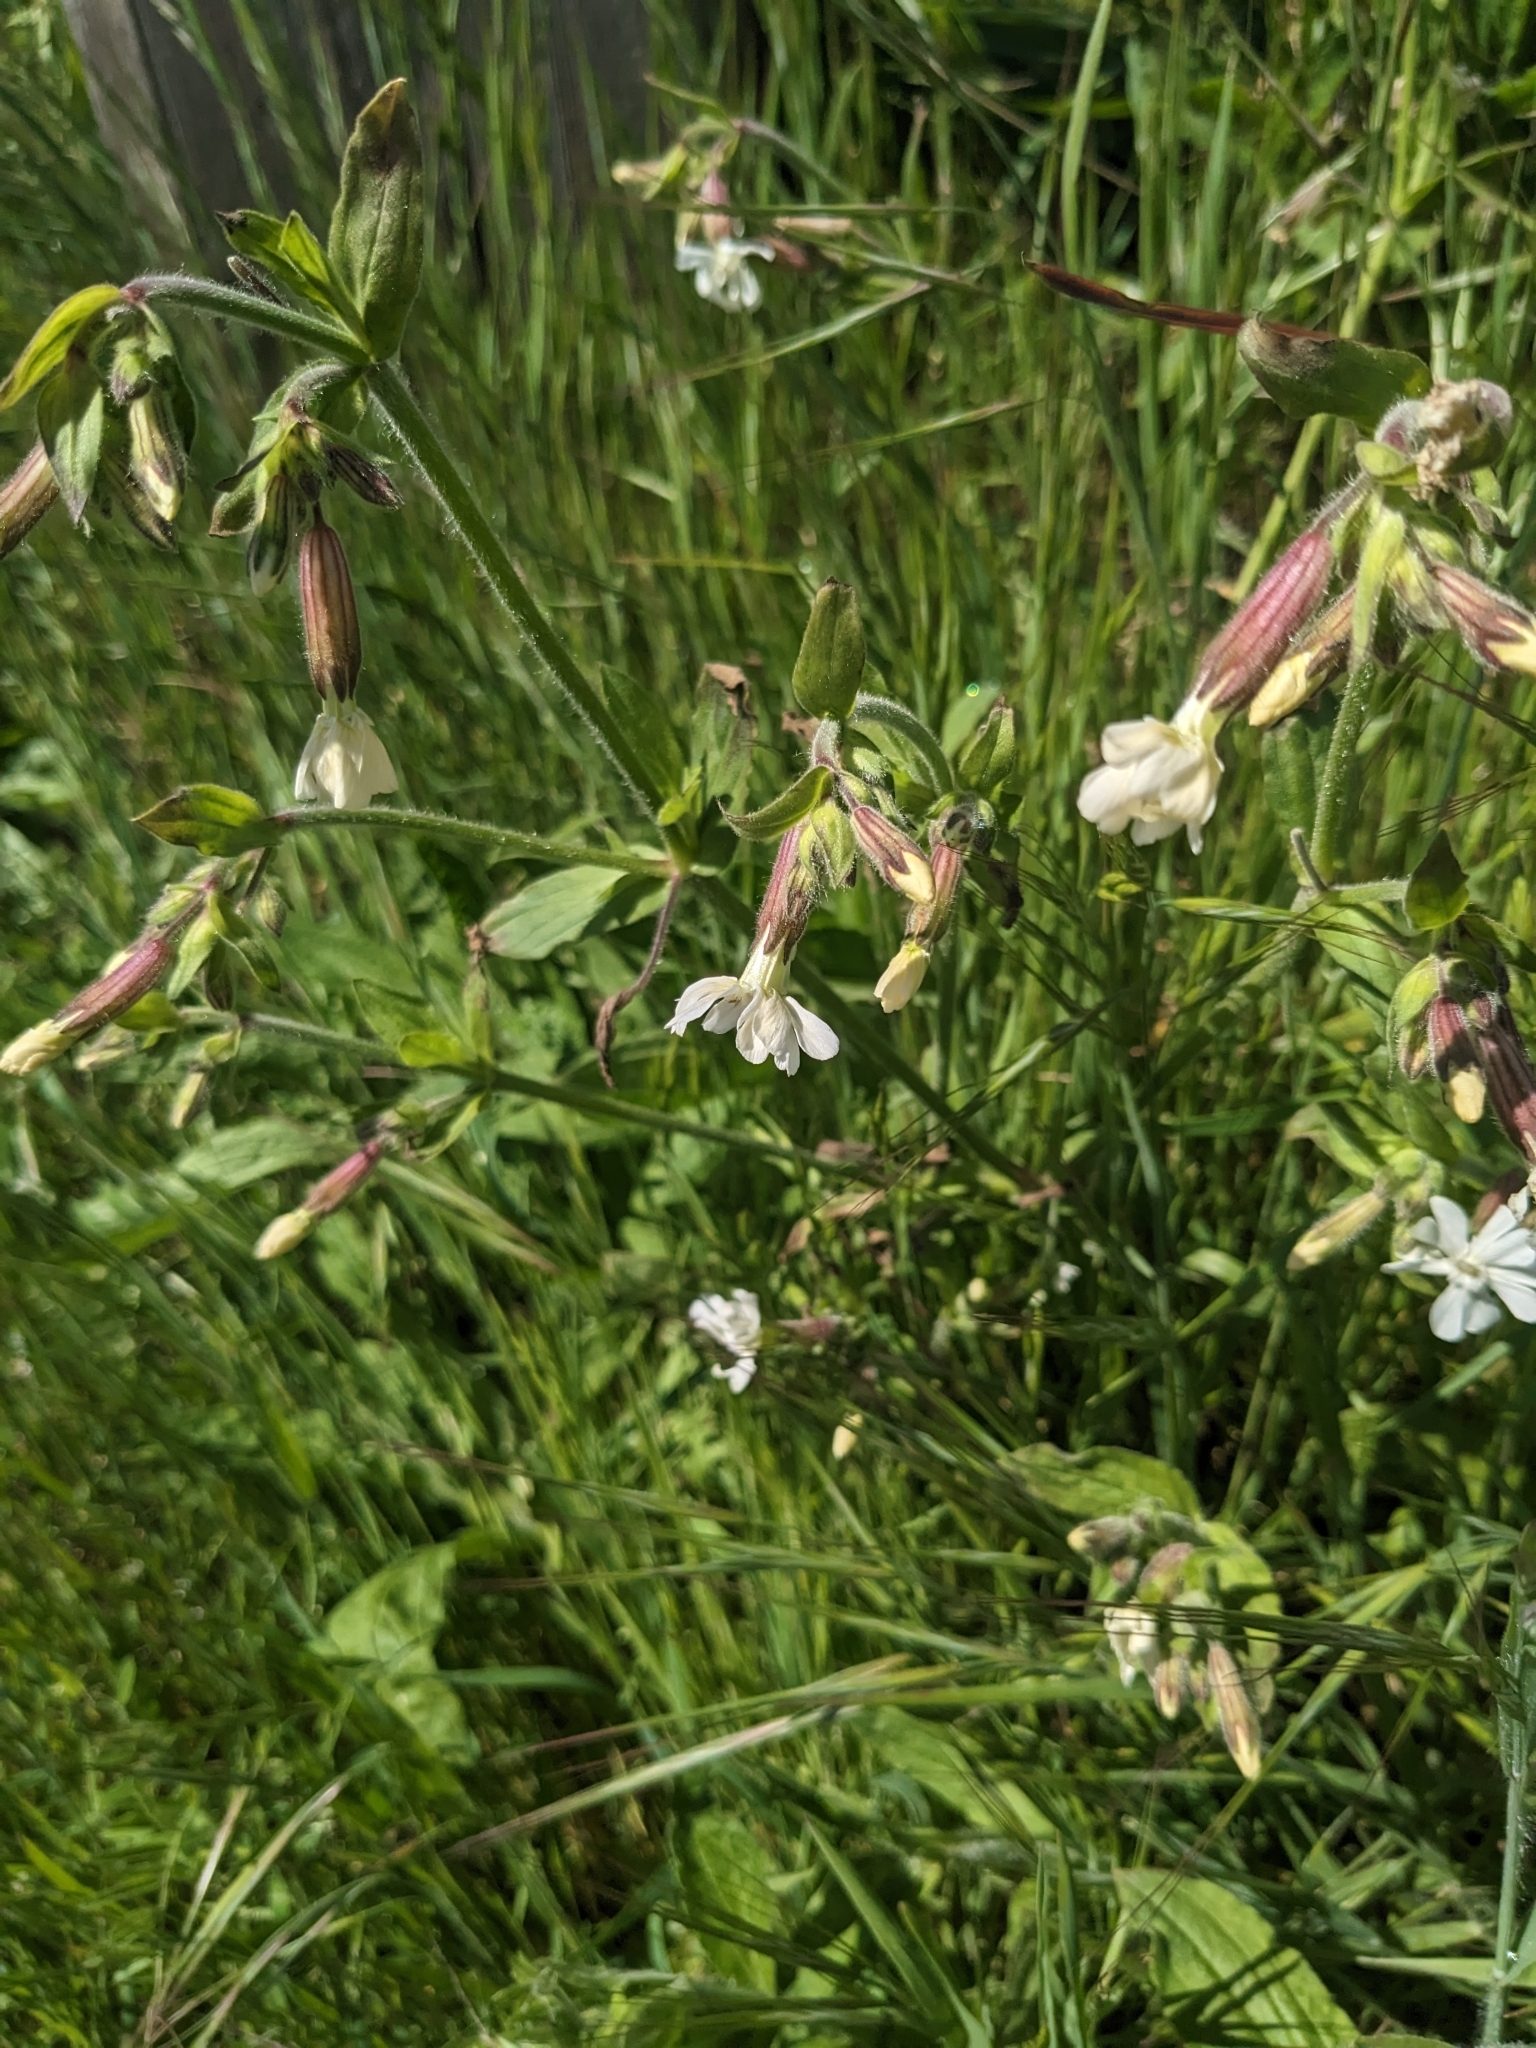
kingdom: Plantae
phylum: Tracheophyta
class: Magnoliopsida
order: Caryophyllales
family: Caryophyllaceae
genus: Silene
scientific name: Silene latifolia
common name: White campion
